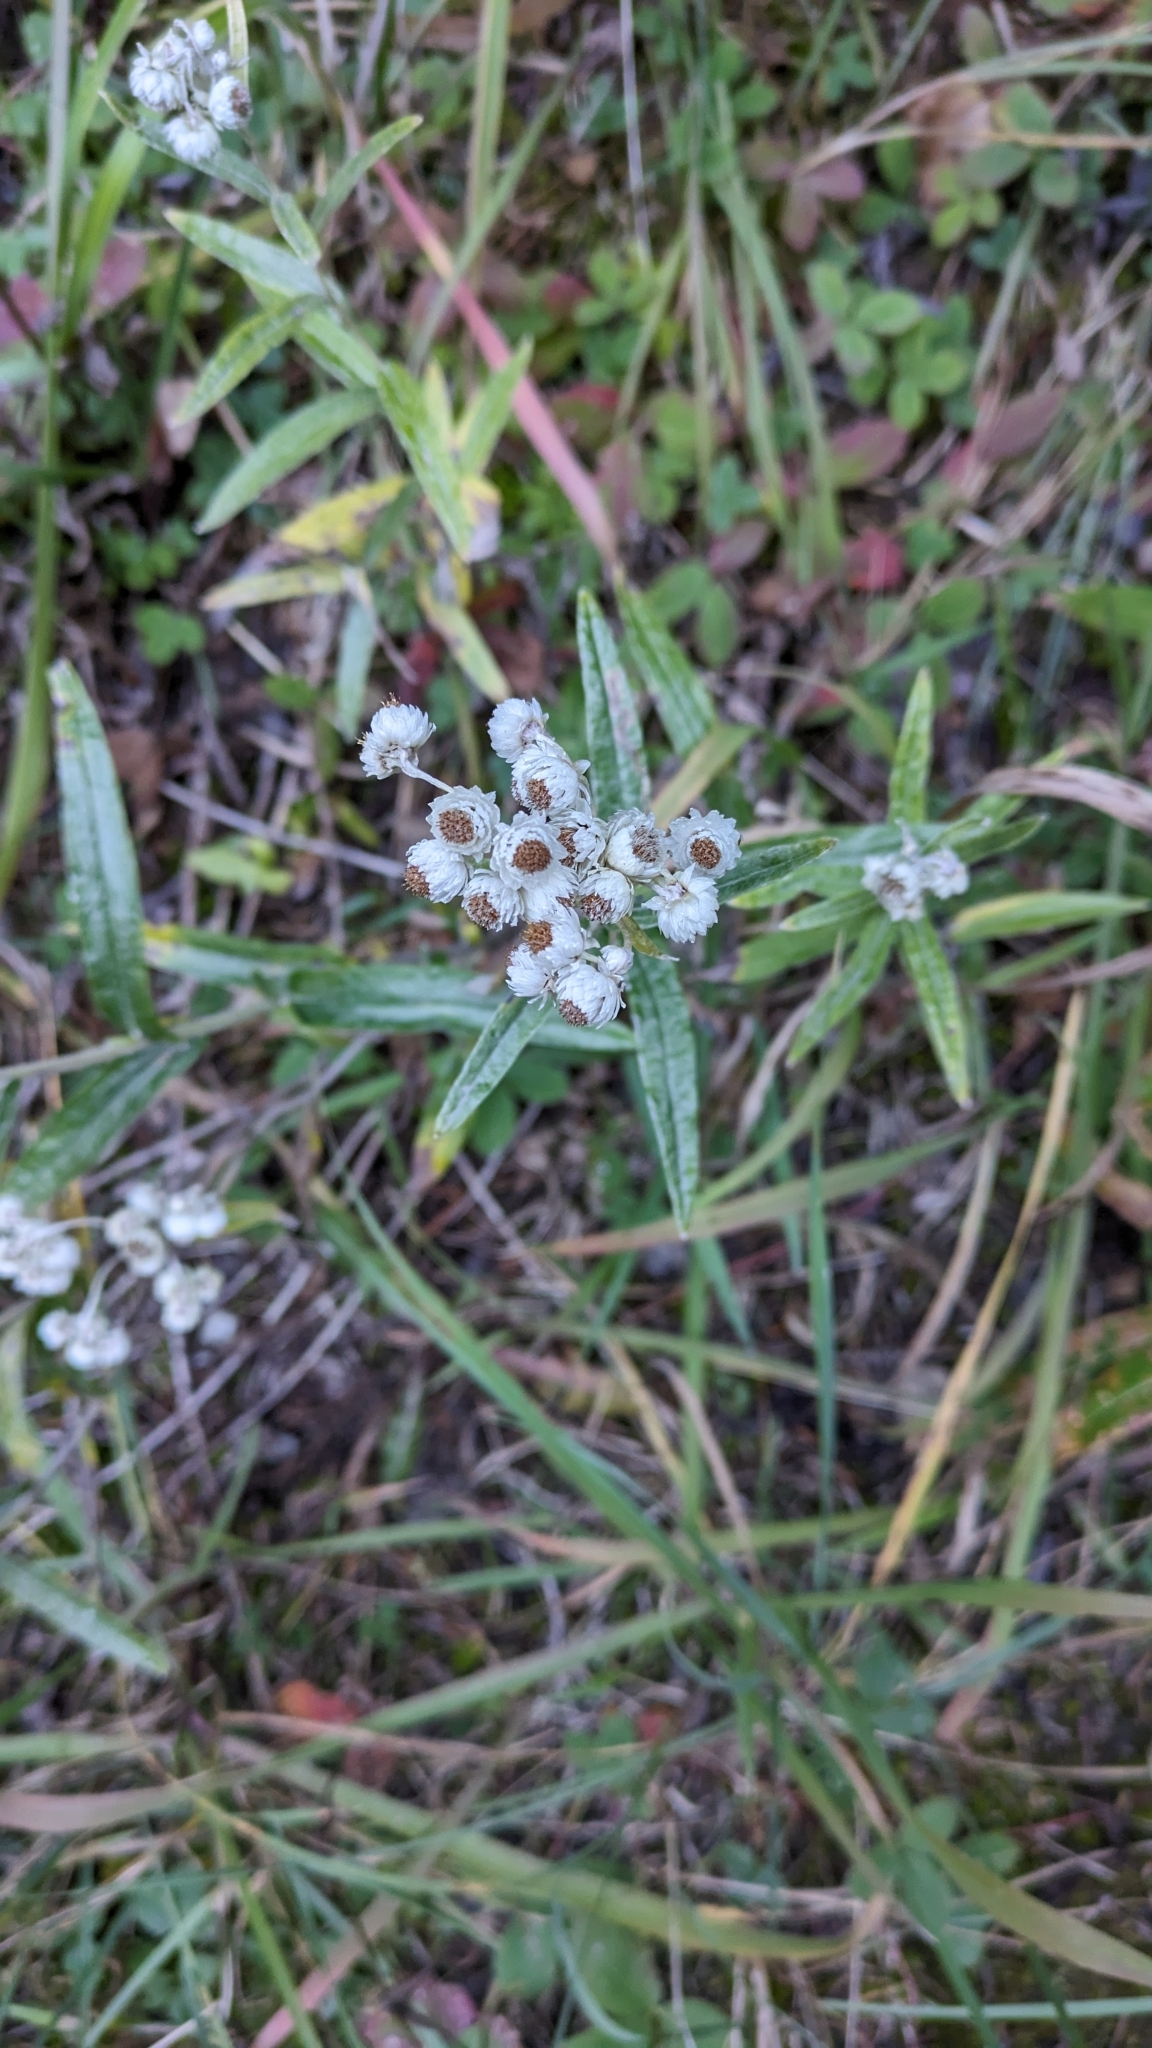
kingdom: Plantae
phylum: Tracheophyta
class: Magnoliopsida
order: Asterales
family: Asteraceae
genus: Anaphalis
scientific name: Anaphalis margaritacea
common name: Pearly everlasting
